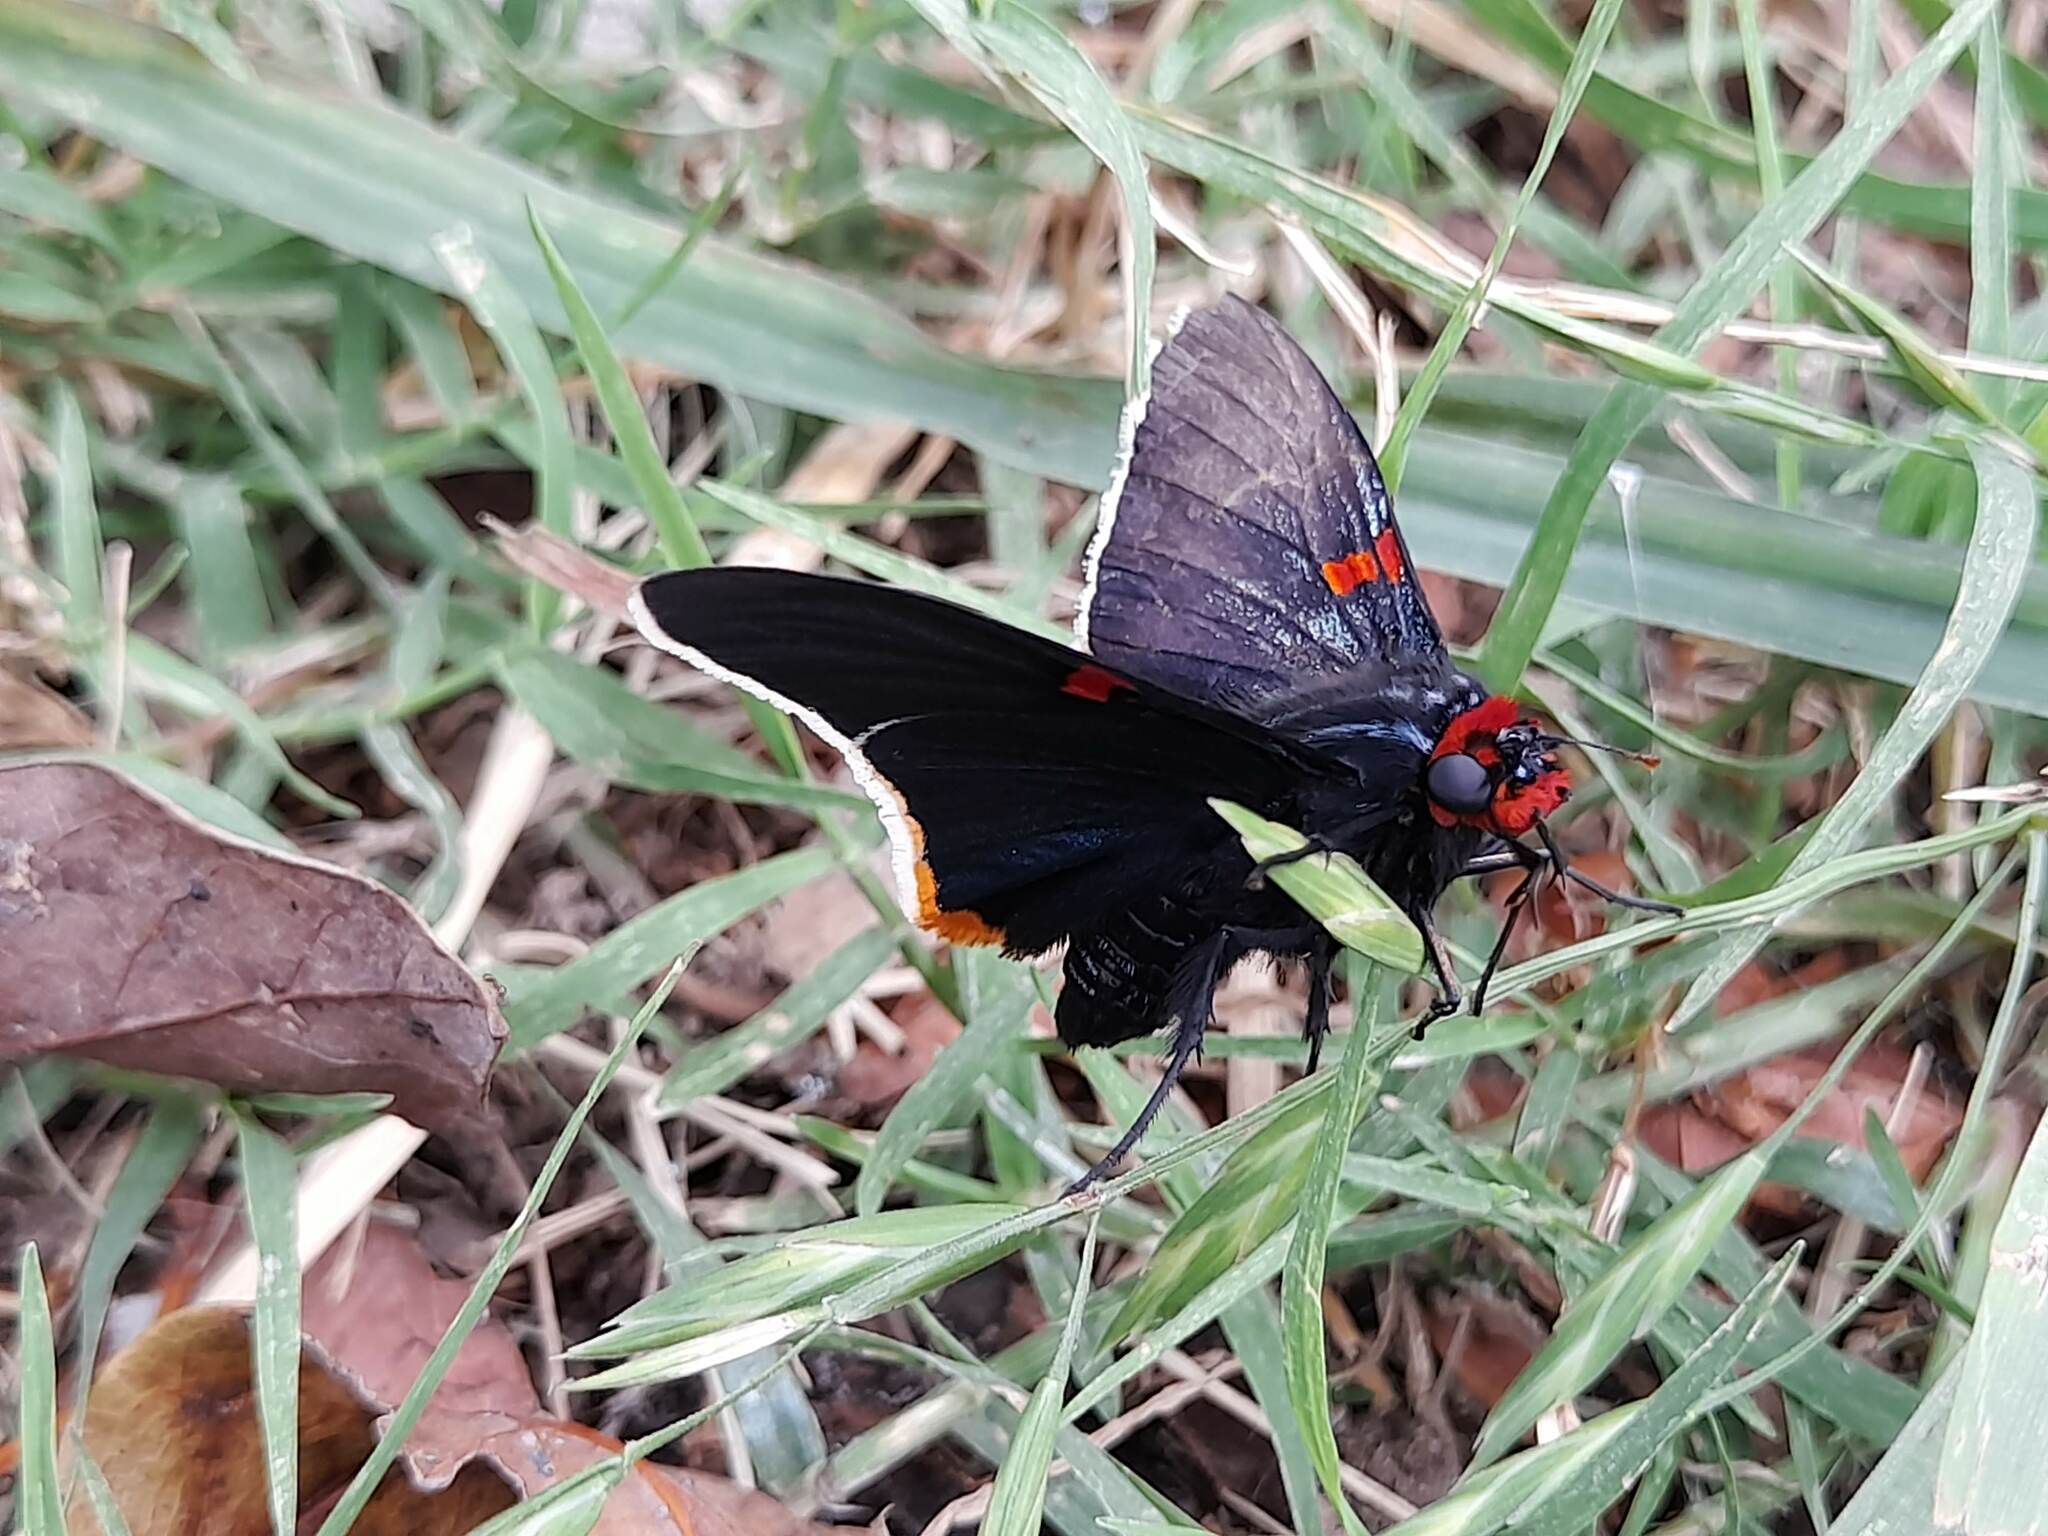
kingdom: Animalia
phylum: Arthropoda
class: Insecta
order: Lepidoptera
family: Hesperiidae
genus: Phocides
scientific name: Phocides polybius
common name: Guava skipper
